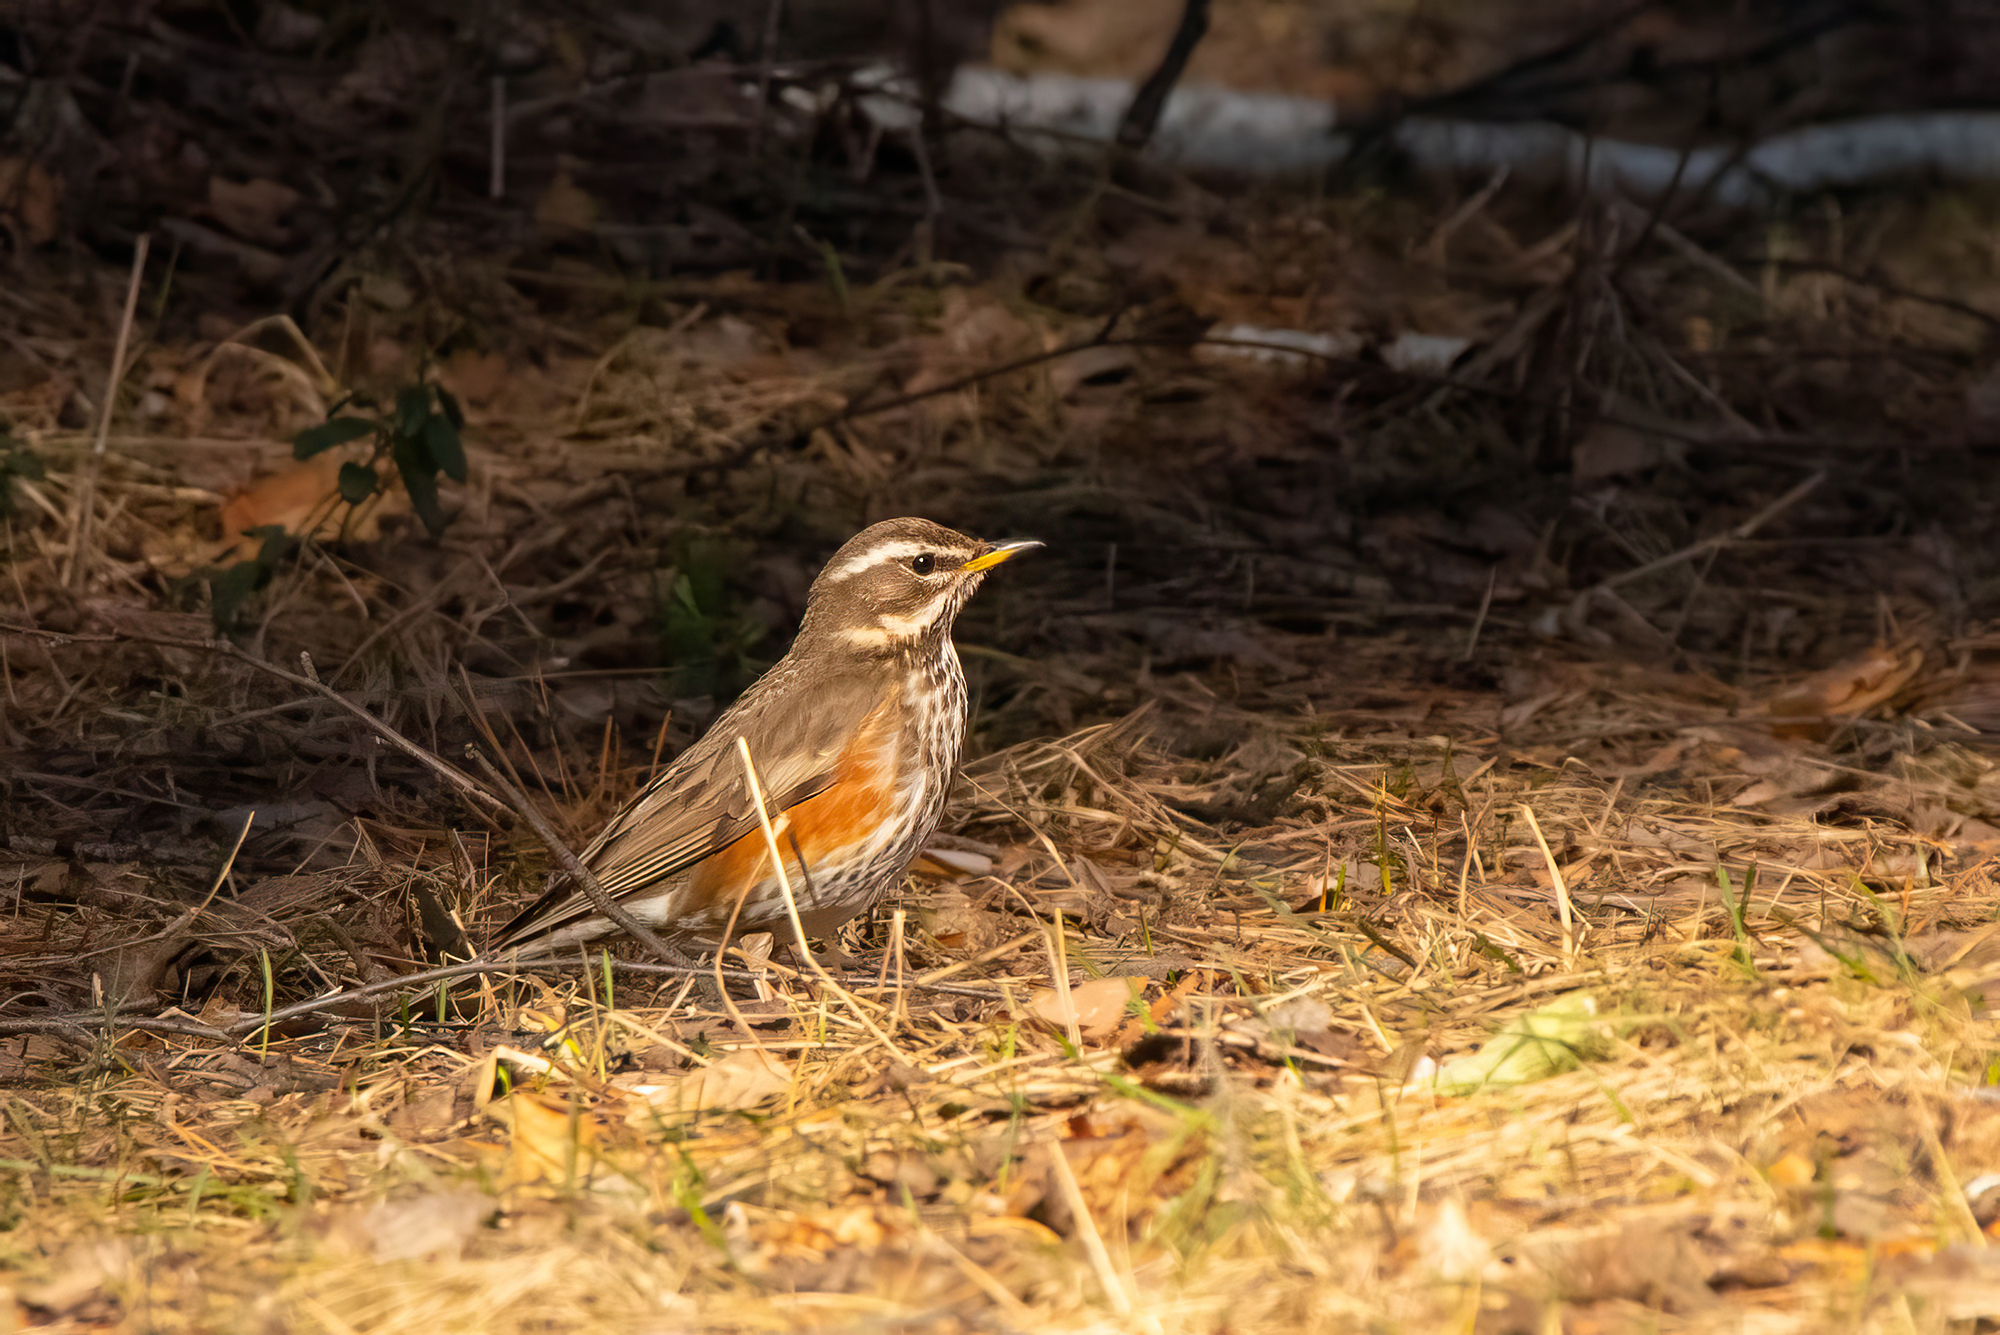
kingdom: Animalia
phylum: Chordata
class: Aves
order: Passeriformes
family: Turdidae
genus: Turdus
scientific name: Turdus iliacus
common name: Redwing
